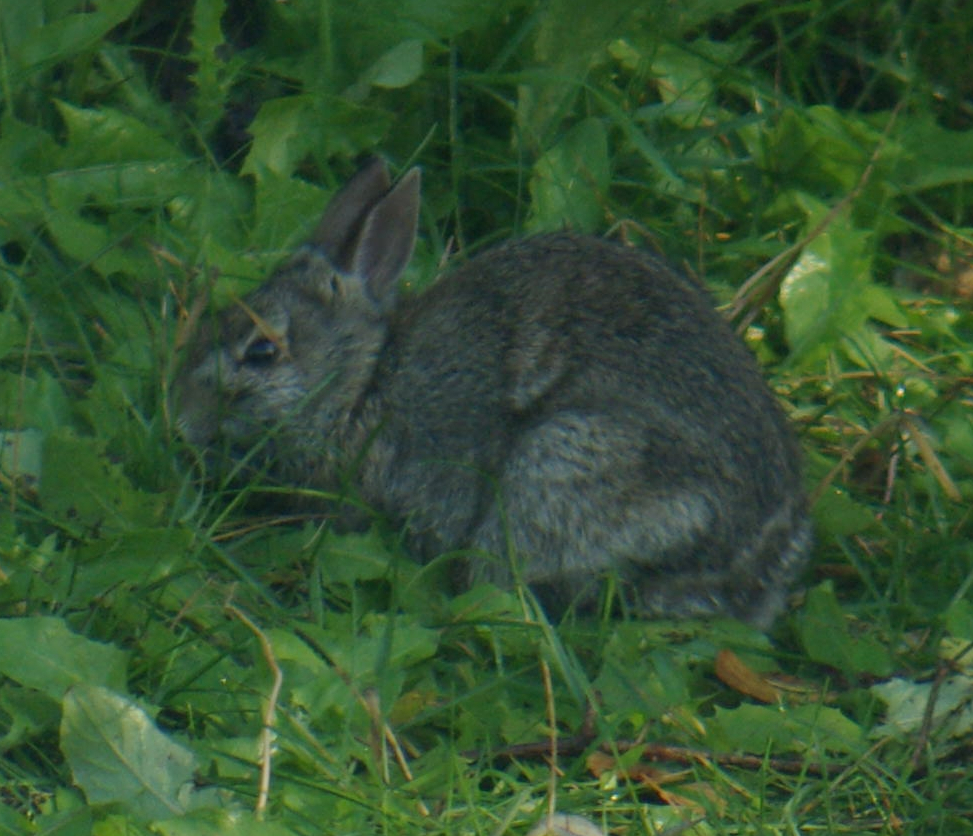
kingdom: Animalia
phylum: Chordata
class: Mammalia
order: Lagomorpha
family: Leporidae
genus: Sylvilagus
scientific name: Sylvilagus floridanus
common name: Eastern cottontail
